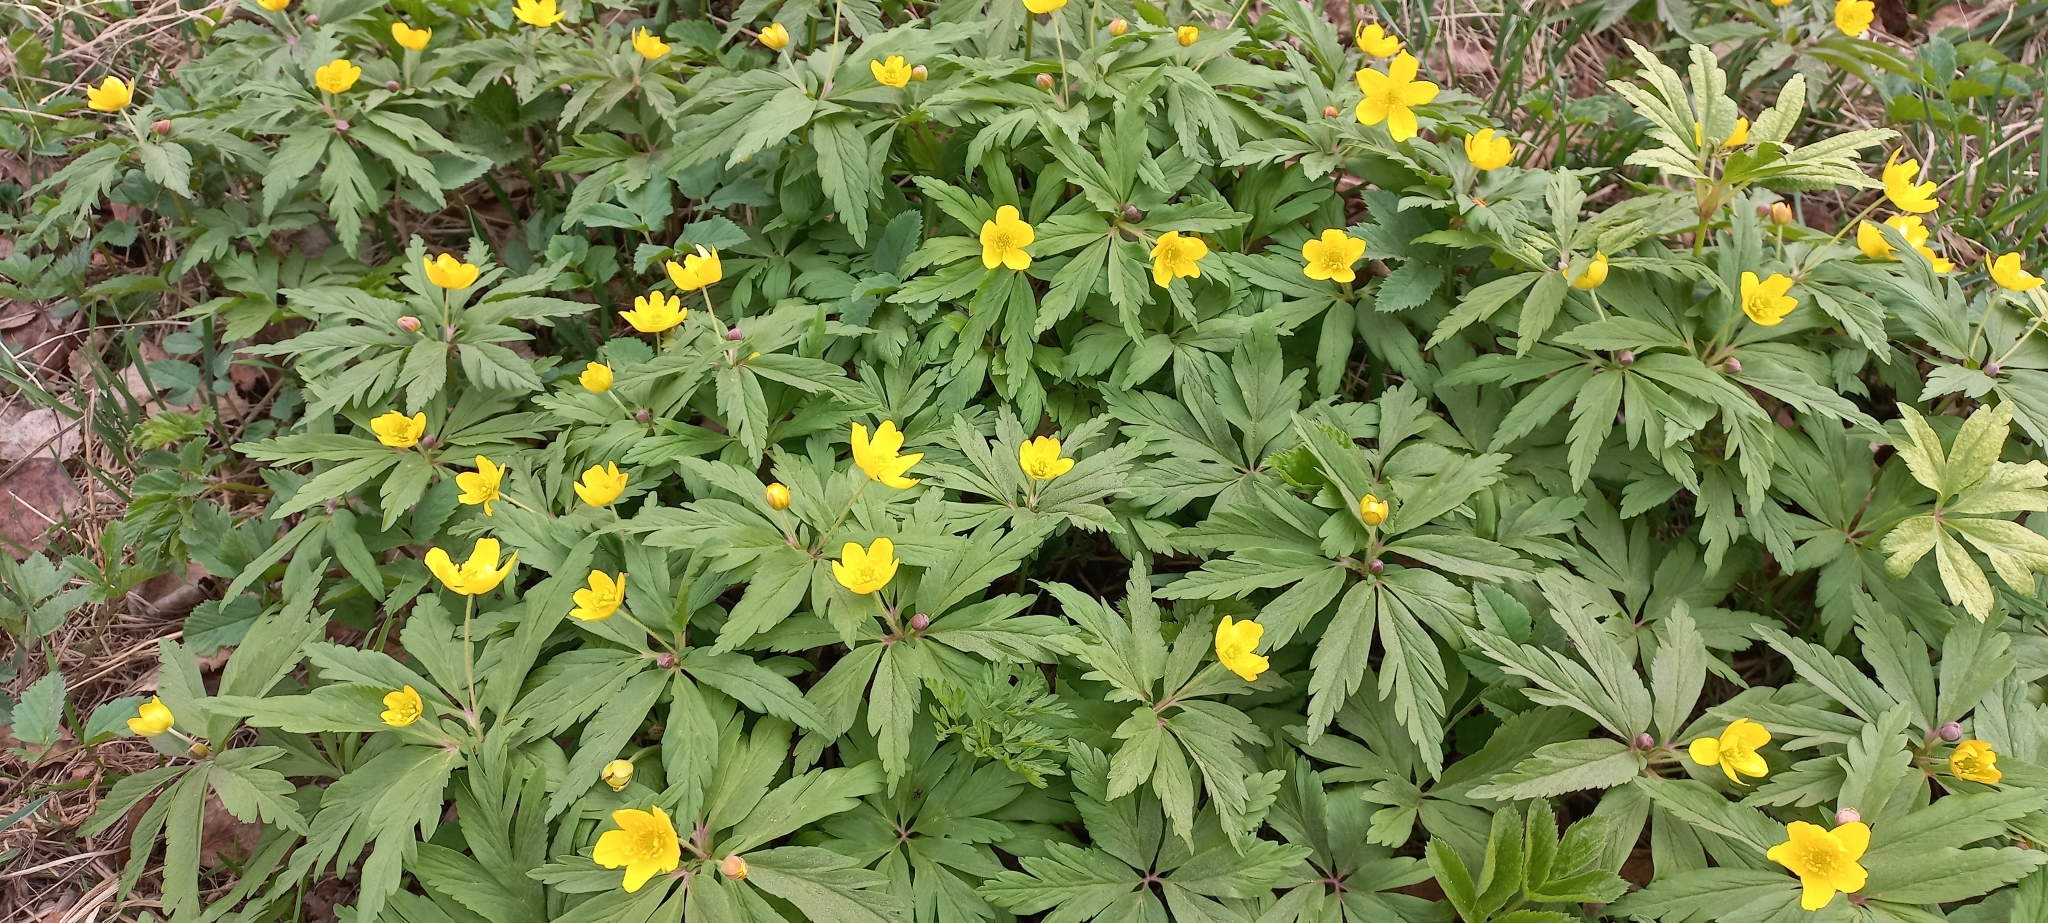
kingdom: Plantae
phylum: Tracheophyta
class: Magnoliopsida
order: Ranunculales
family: Ranunculaceae
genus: Anemone
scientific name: Anemone ranunculoides
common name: Yellow anemone
